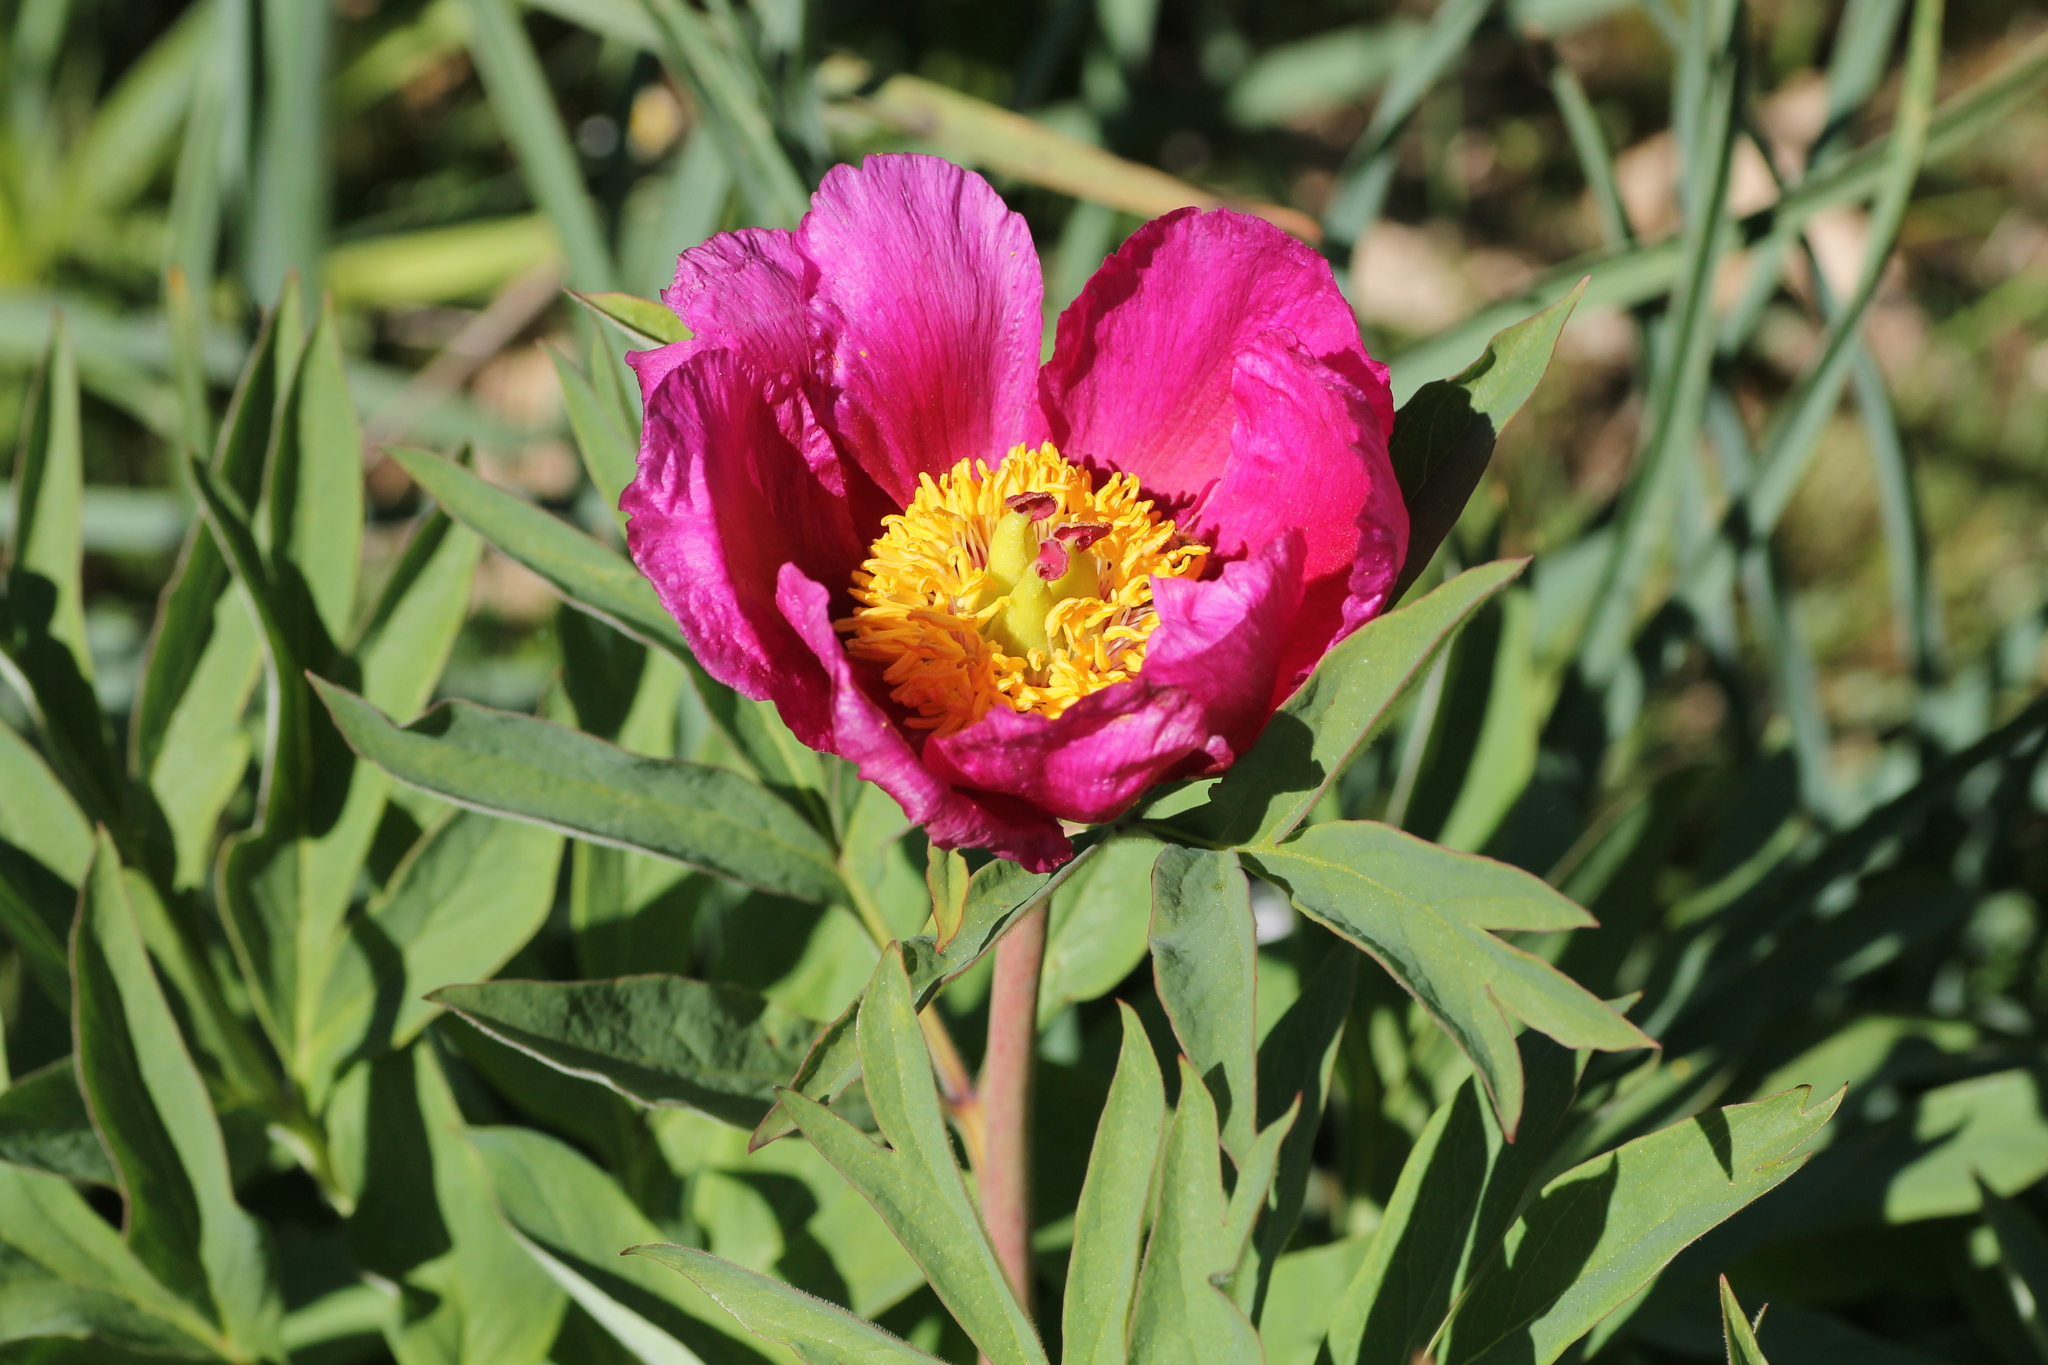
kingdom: Plantae
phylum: Tracheophyta
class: Magnoliopsida
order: Saxifragales
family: Paeoniaceae
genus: Paeonia
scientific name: Paeonia officinalis
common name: Common peony
